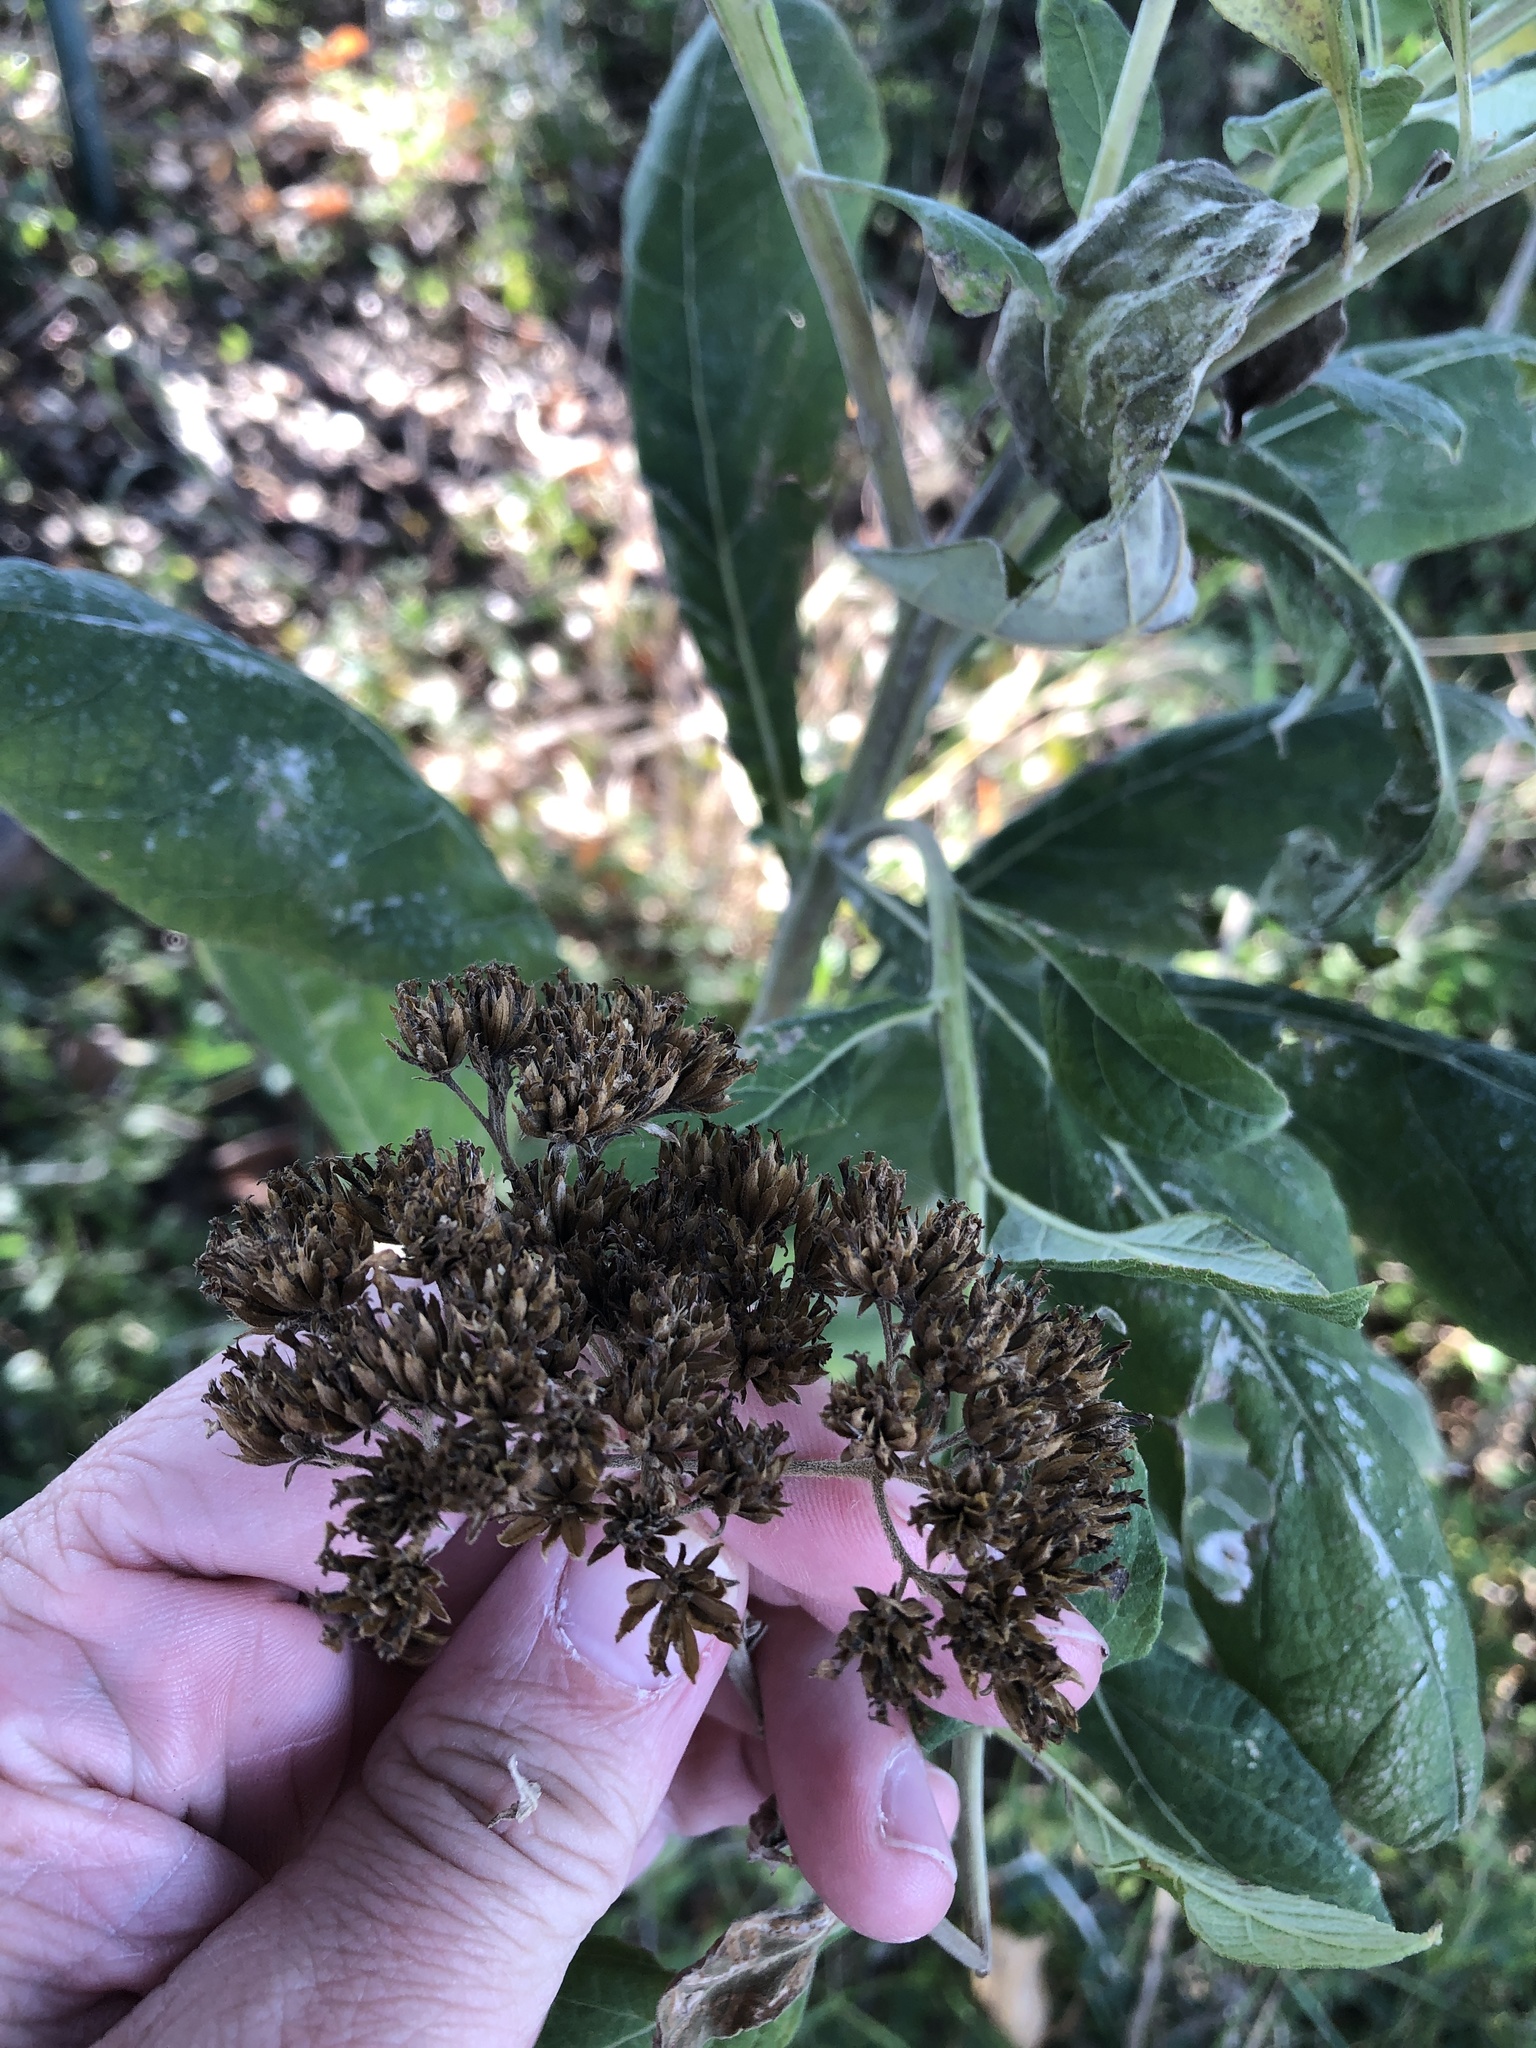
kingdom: Plantae
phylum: Tracheophyta
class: Magnoliopsida
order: Asterales
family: Asteraceae
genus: Verbesina
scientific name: Verbesina virginica
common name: Frostweed
